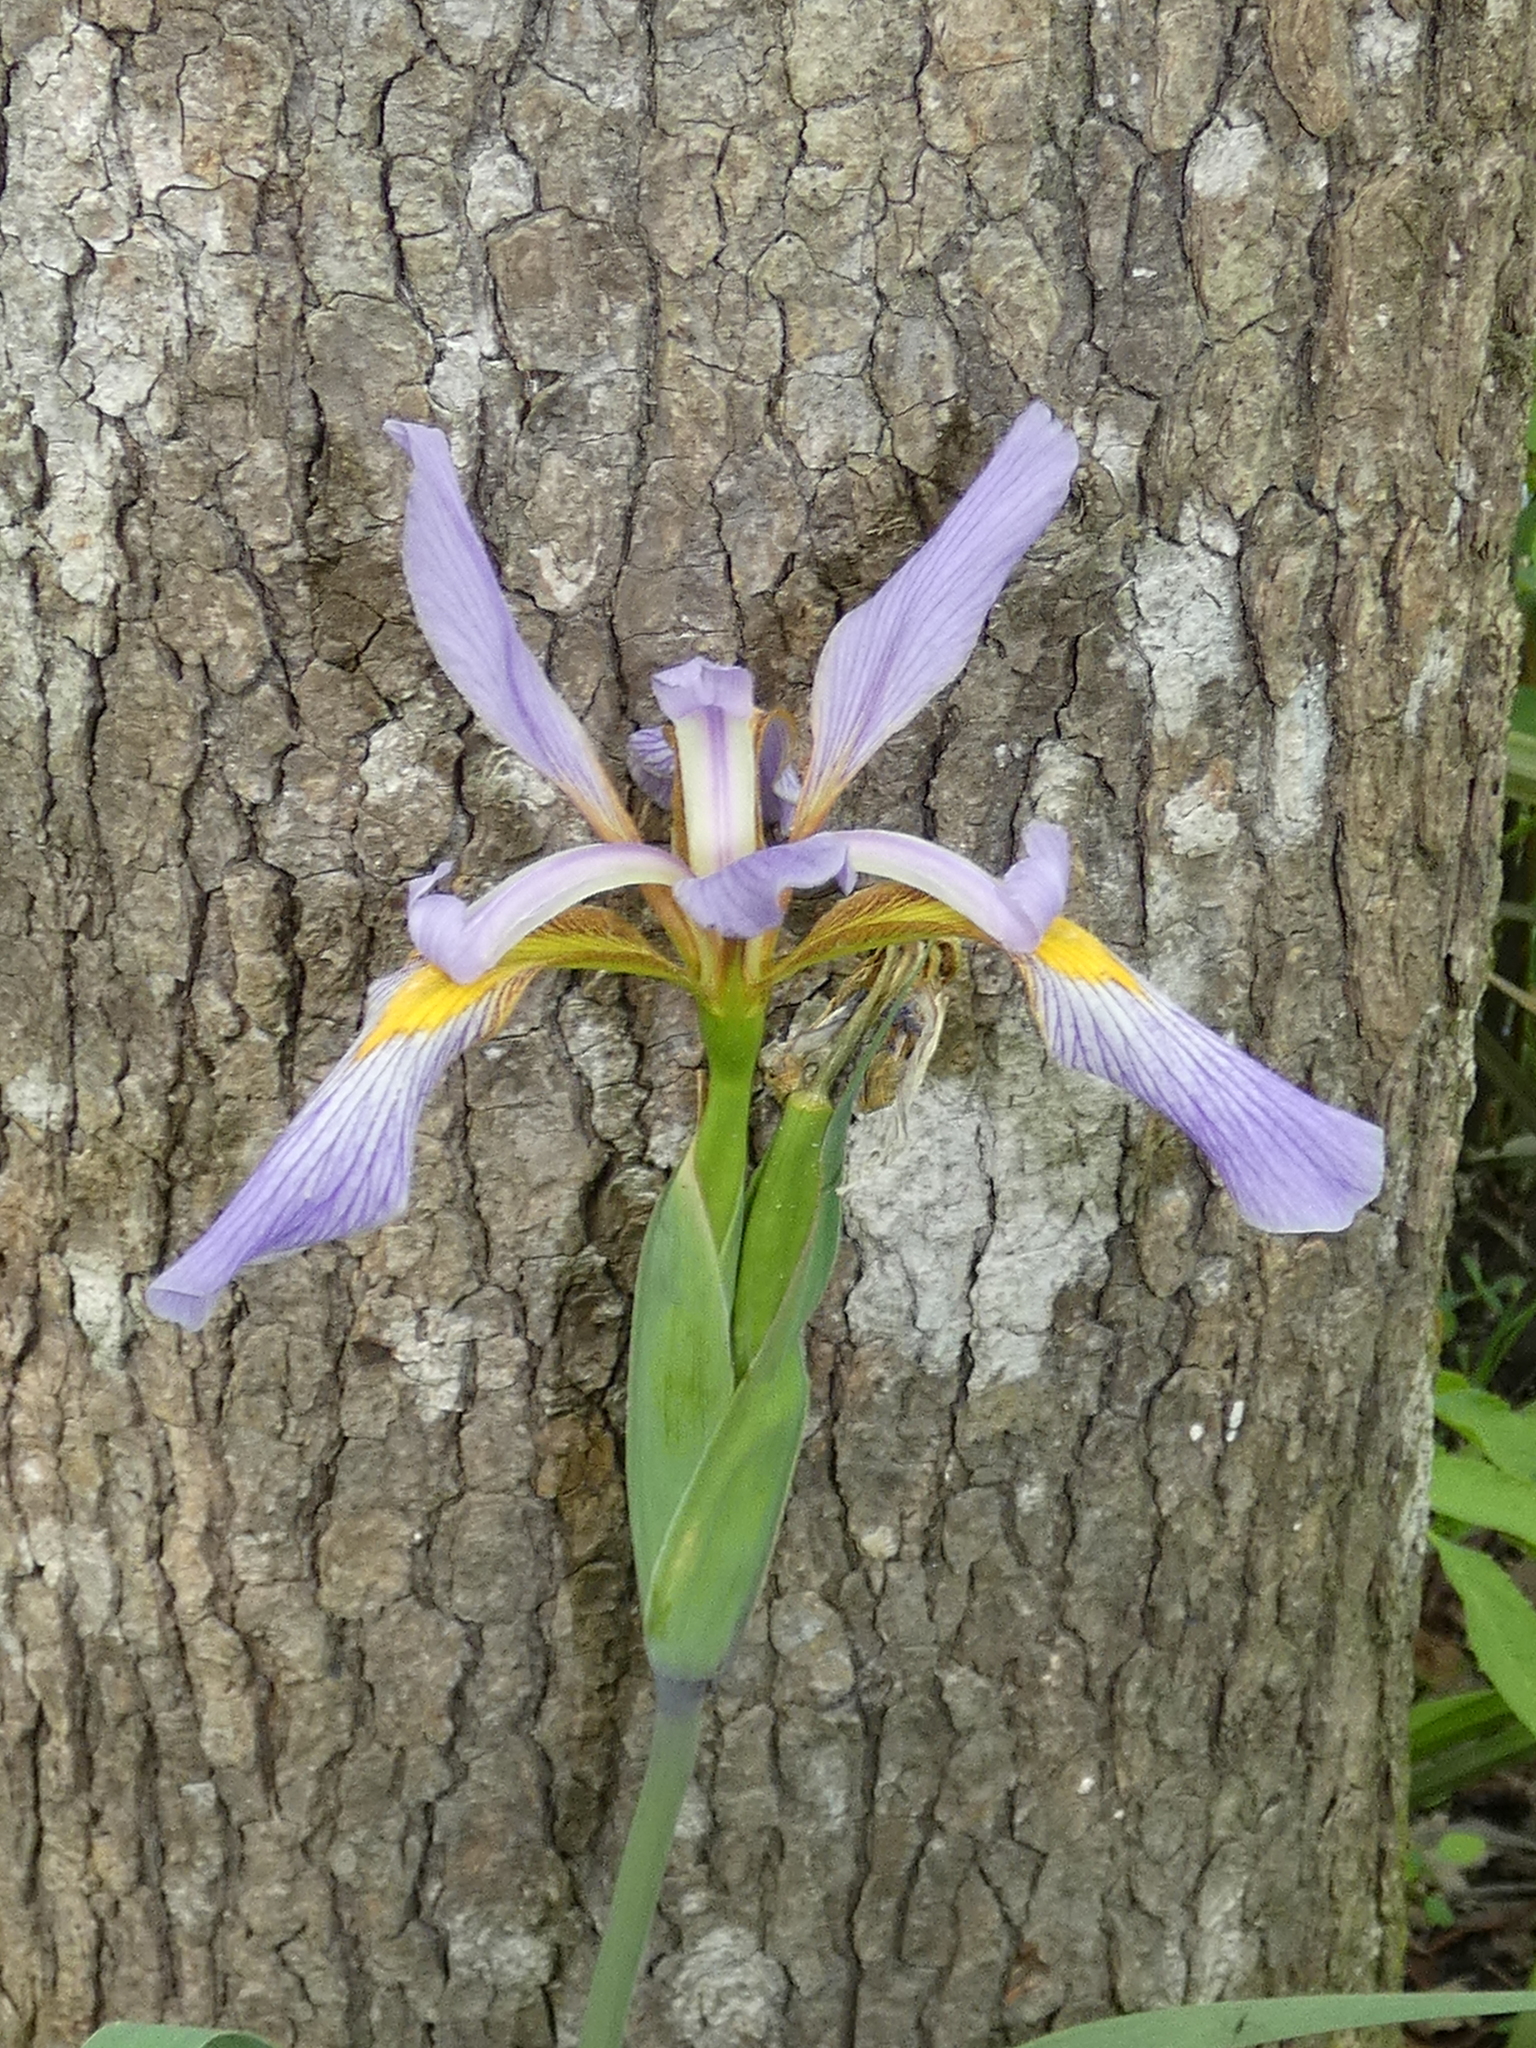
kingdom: Plantae
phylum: Tracheophyta
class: Liliopsida
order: Asparagales
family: Iridaceae
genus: Iris
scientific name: Iris virginica
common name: Southern blue flag
